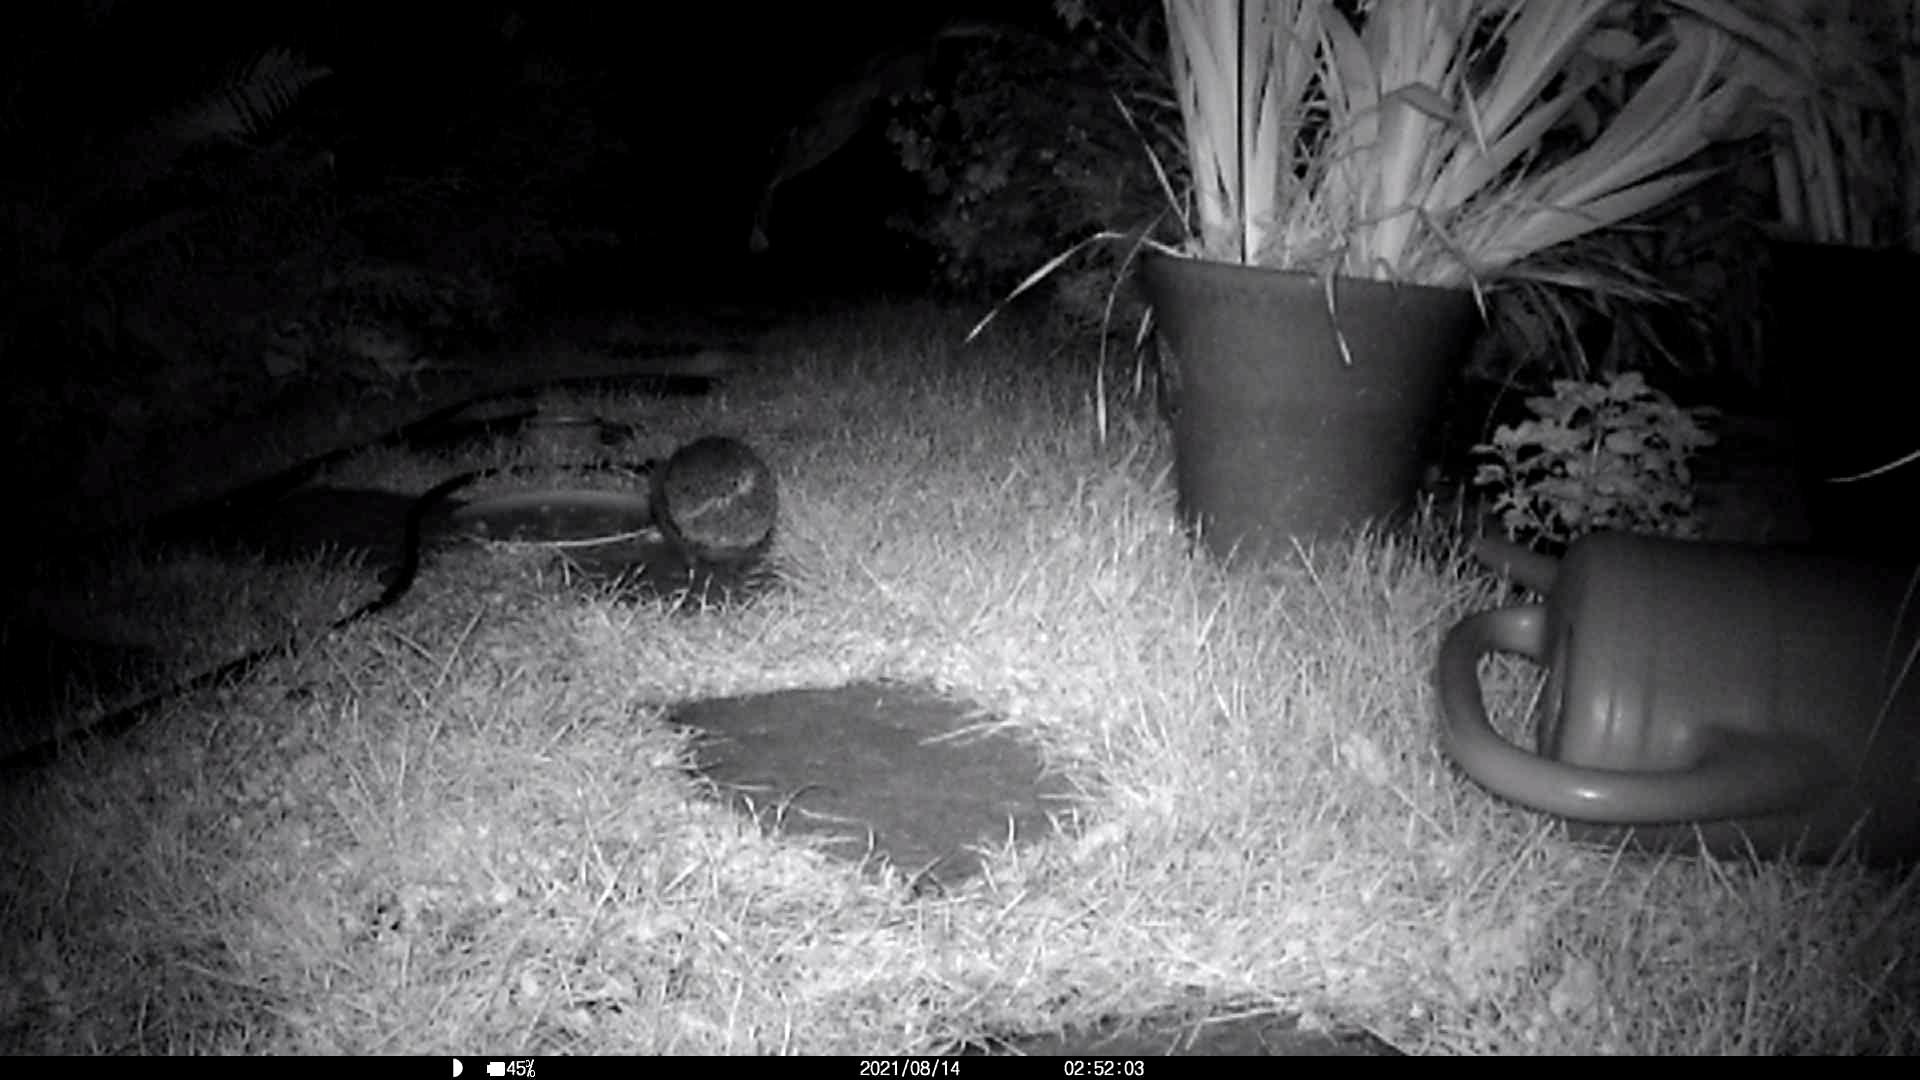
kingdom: Animalia
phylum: Chordata
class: Mammalia
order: Erinaceomorpha
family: Erinaceidae
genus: Erinaceus
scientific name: Erinaceus europaeus
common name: West european hedgehog
